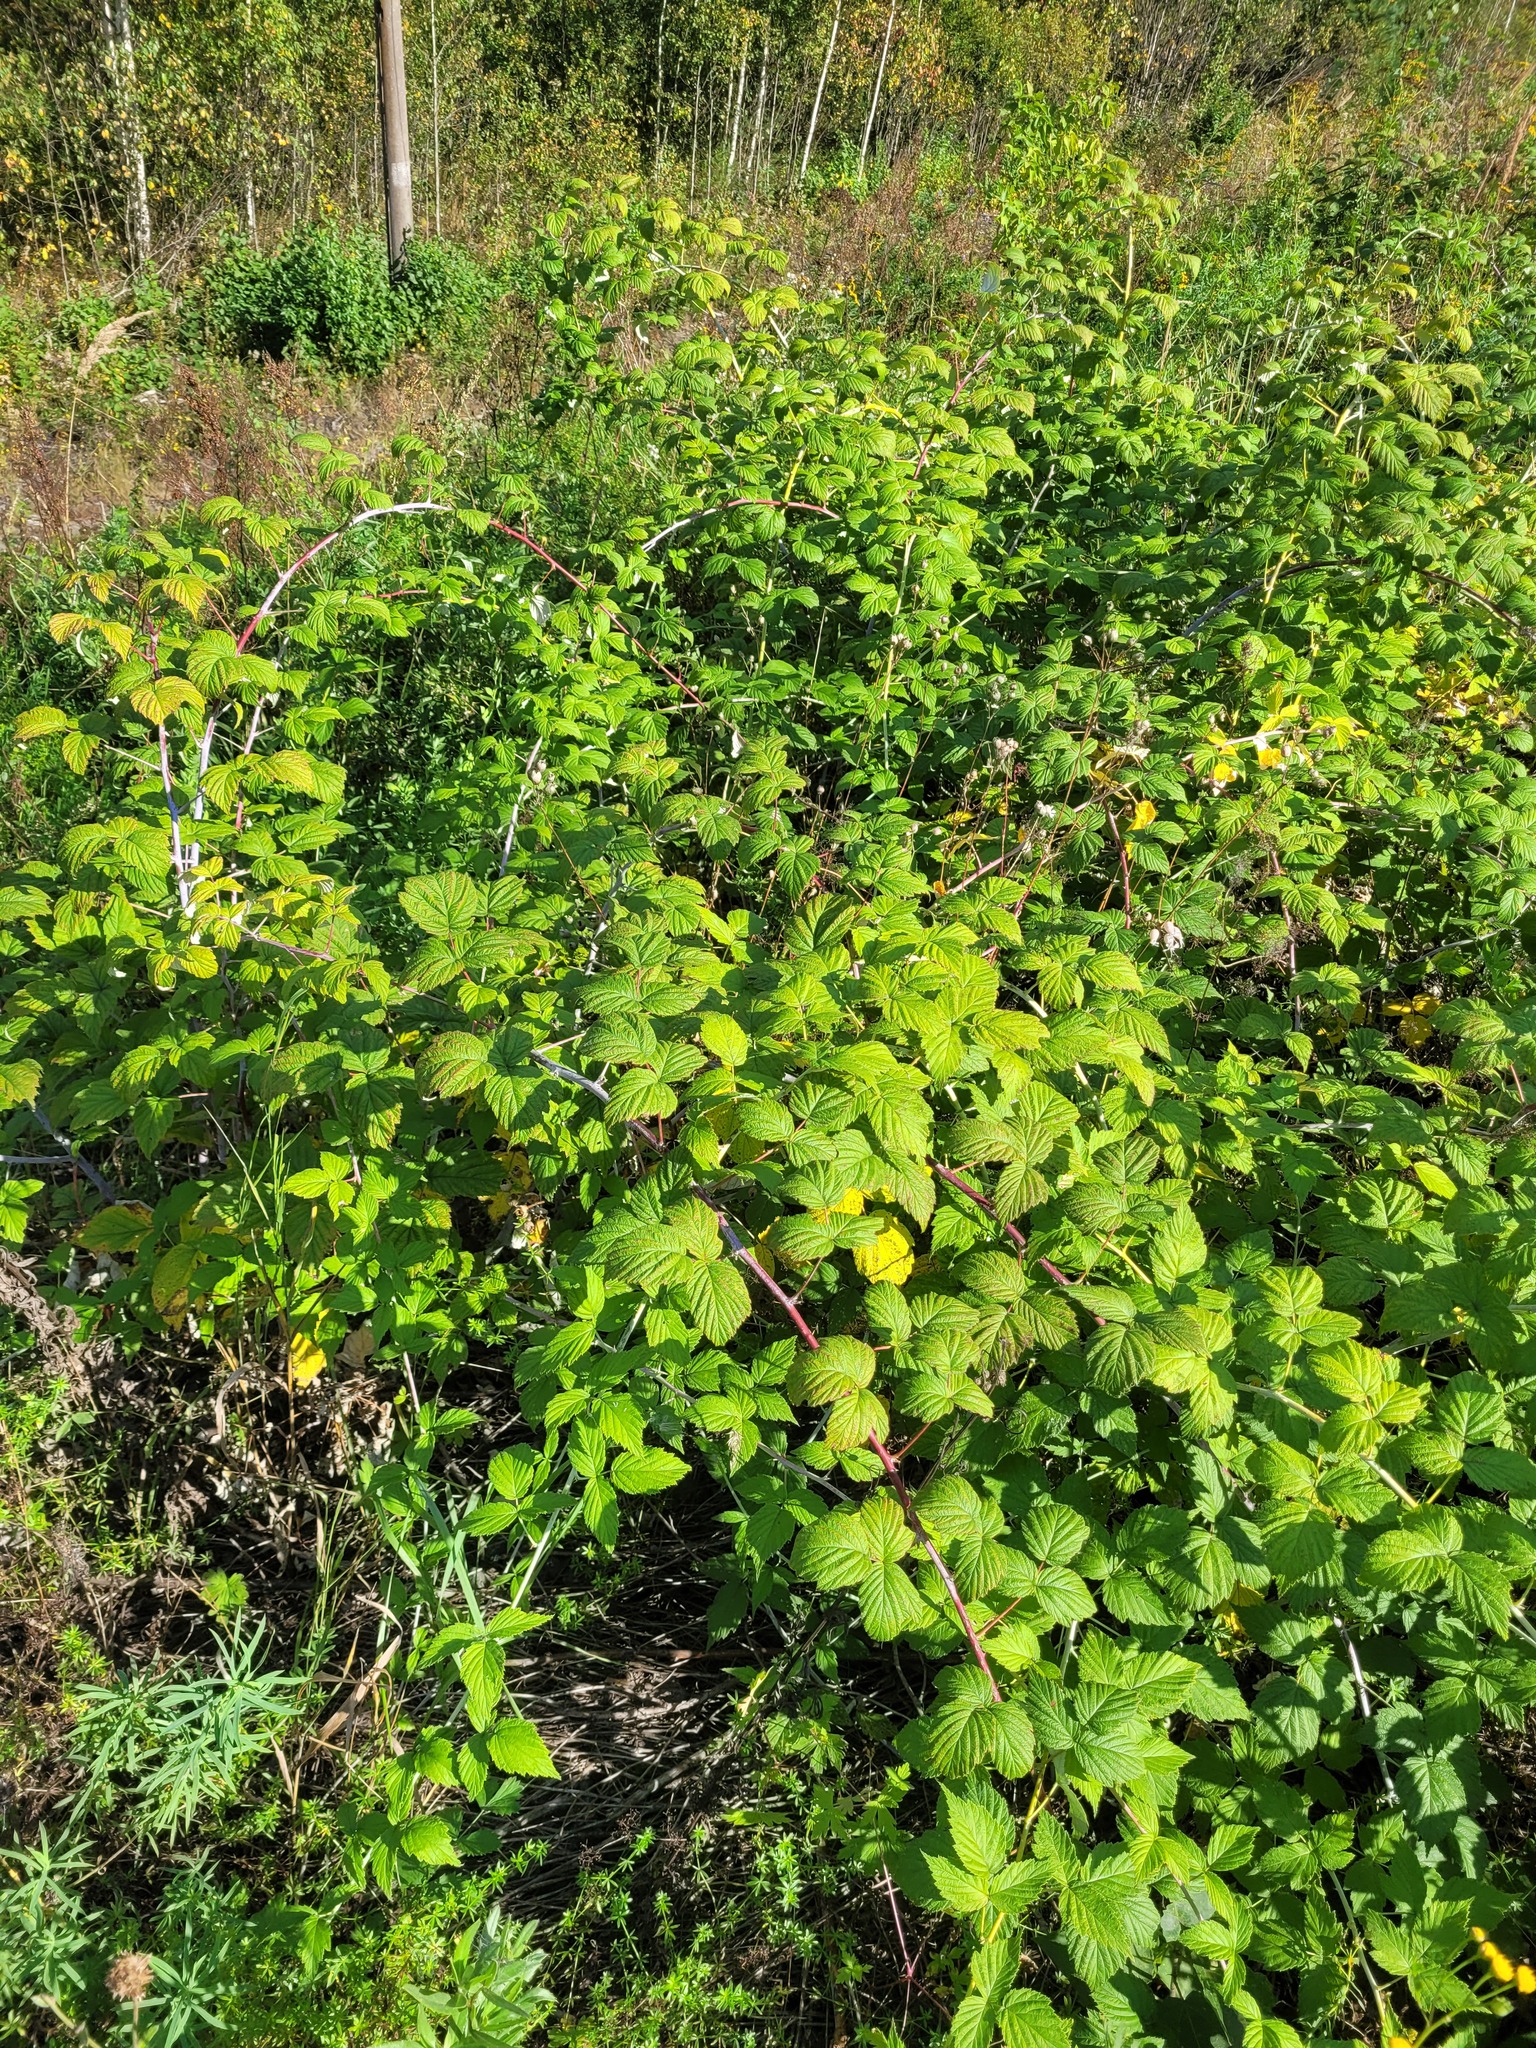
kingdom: Plantae
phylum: Tracheophyta
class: Magnoliopsida
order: Rosales
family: Rosaceae
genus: Rubus
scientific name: Rubus occidentalis
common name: Black raspberry
